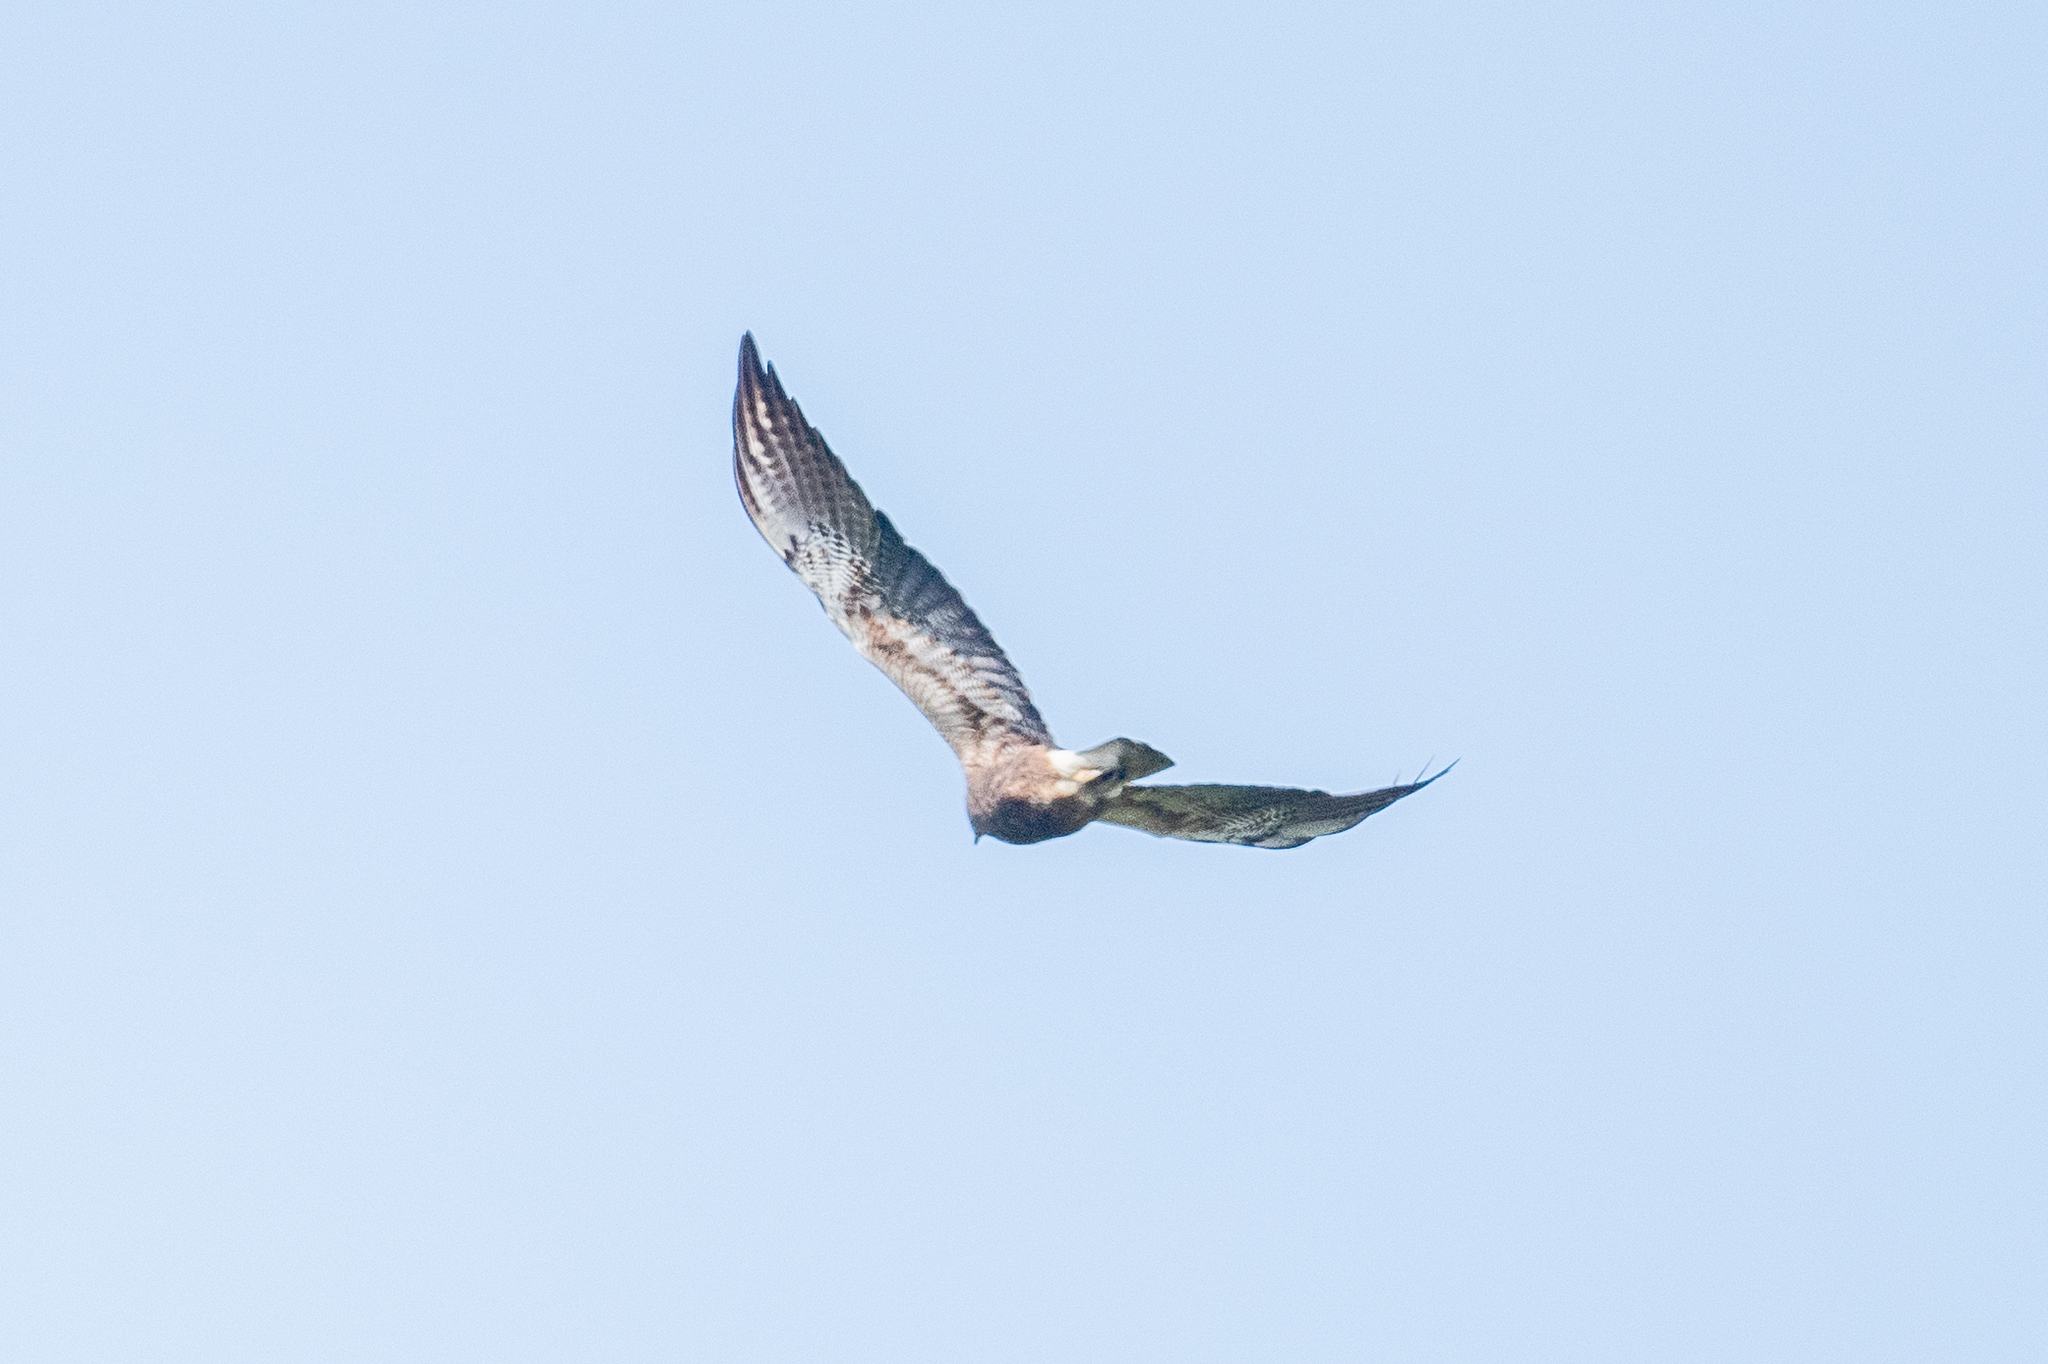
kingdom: Animalia
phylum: Chordata
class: Aves
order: Accipitriformes
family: Accipitridae
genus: Buteo
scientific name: Buteo jamaicensis
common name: Red-tailed hawk
